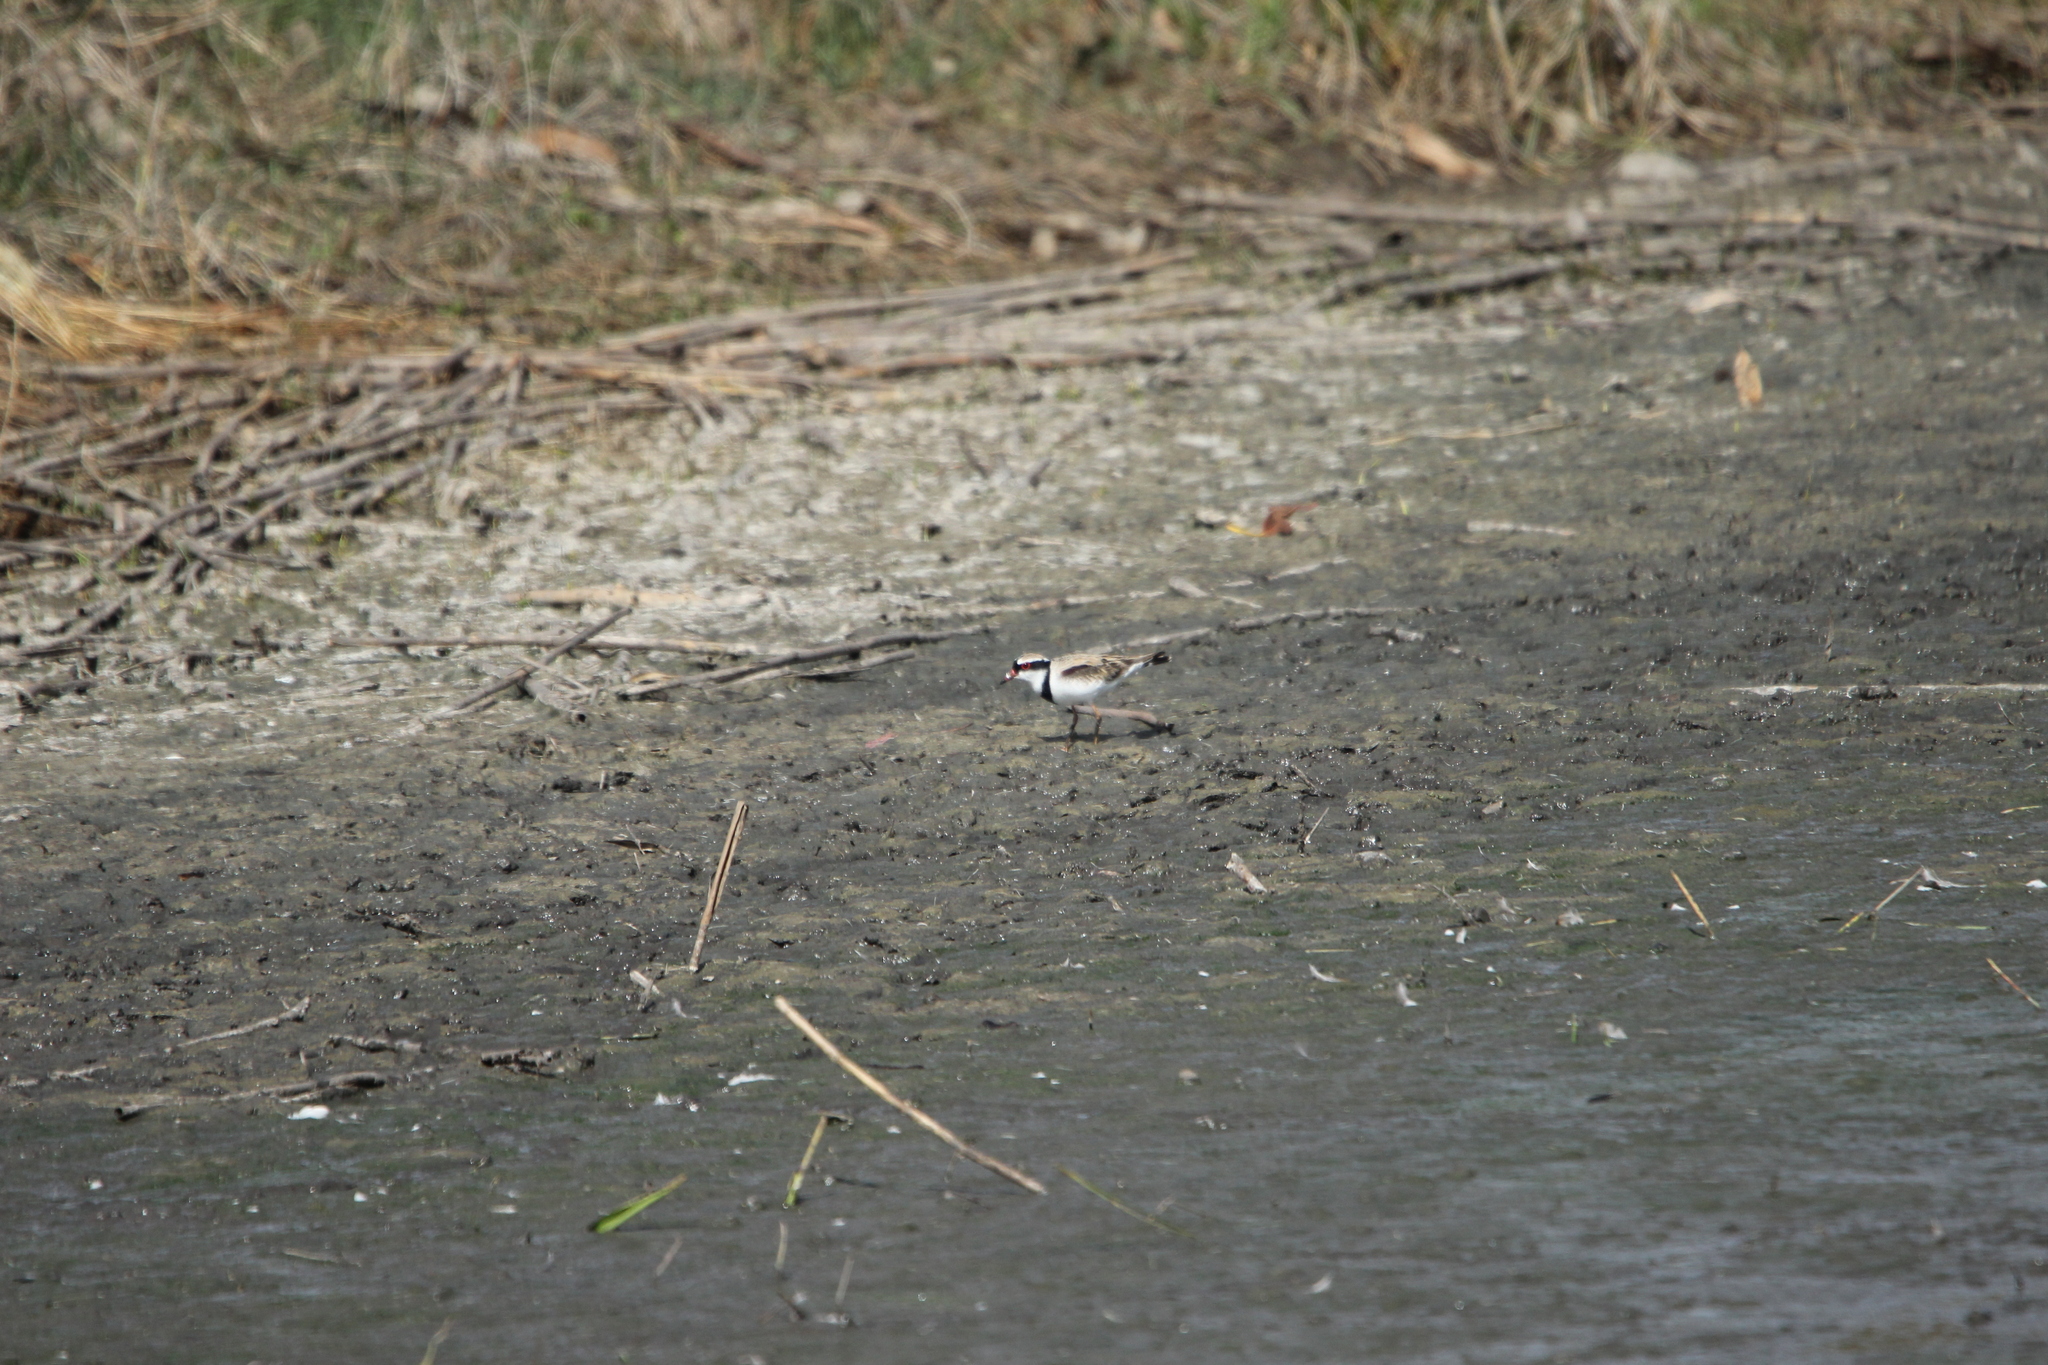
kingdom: Animalia
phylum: Chordata
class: Aves
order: Charadriiformes
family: Charadriidae
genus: Elseyornis
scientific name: Elseyornis melanops
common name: Black-fronted dotterel
